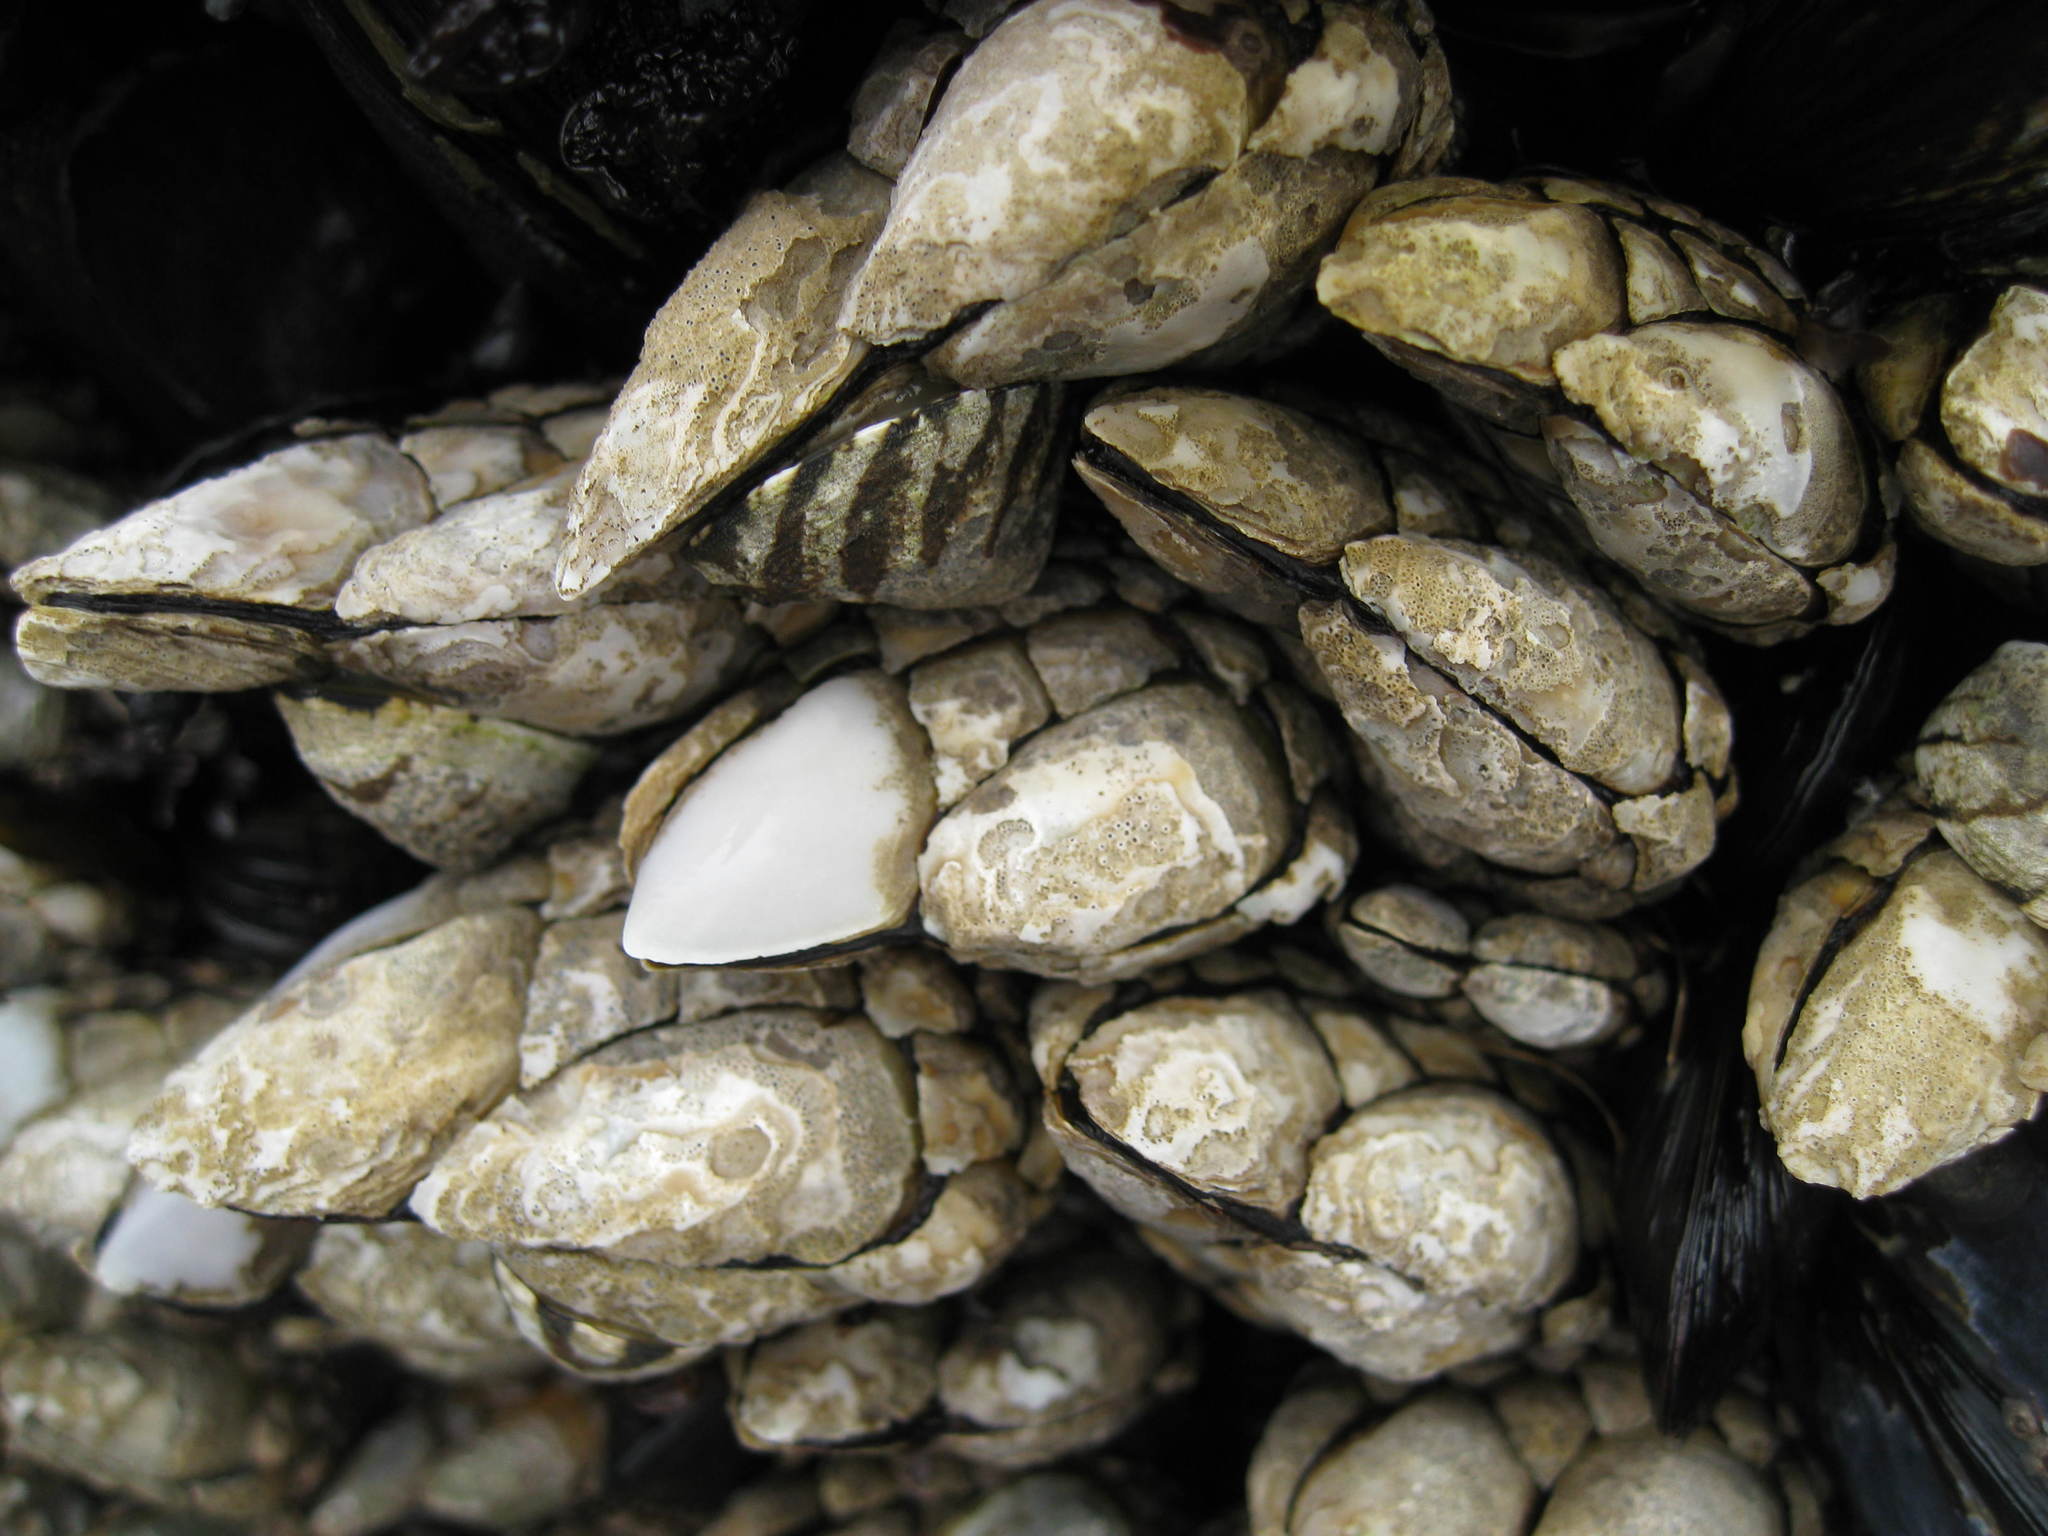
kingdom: Animalia
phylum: Arthropoda
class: Maxillopoda
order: Pedunculata
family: Pollicipedidae
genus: Pollicipes
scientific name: Pollicipes polymerus
